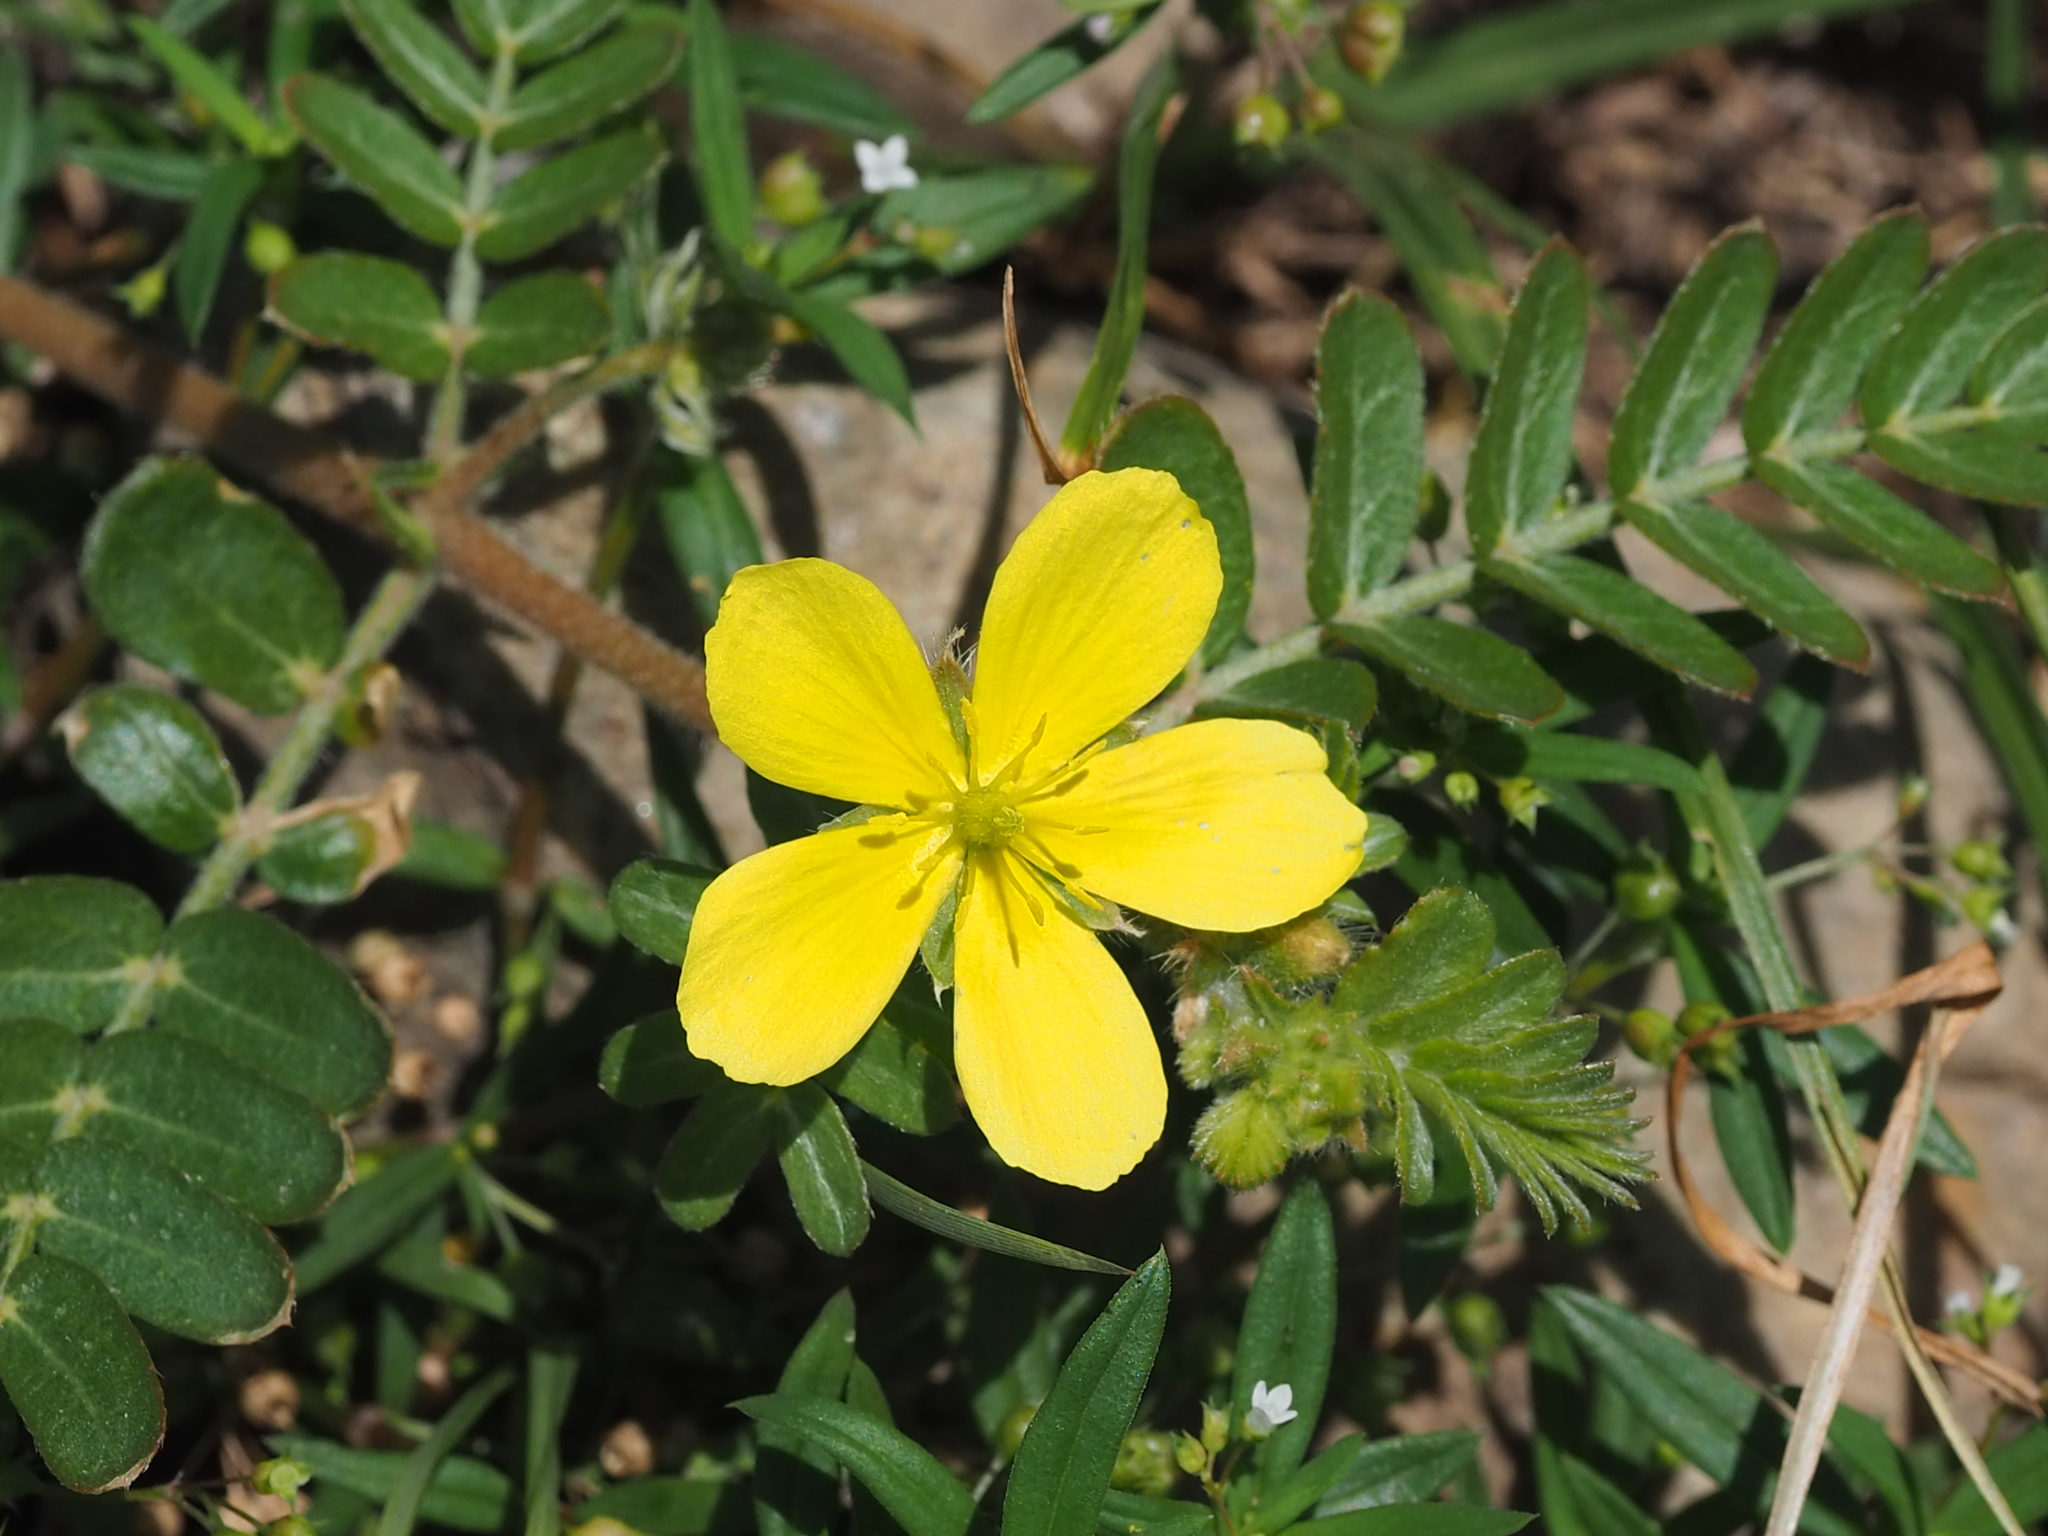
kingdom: Plantae
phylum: Tracheophyta
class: Magnoliopsida
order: Zygophyllales
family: Zygophyllaceae
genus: Tribulus
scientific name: Tribulus cistoides
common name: Jamaican feverplant
